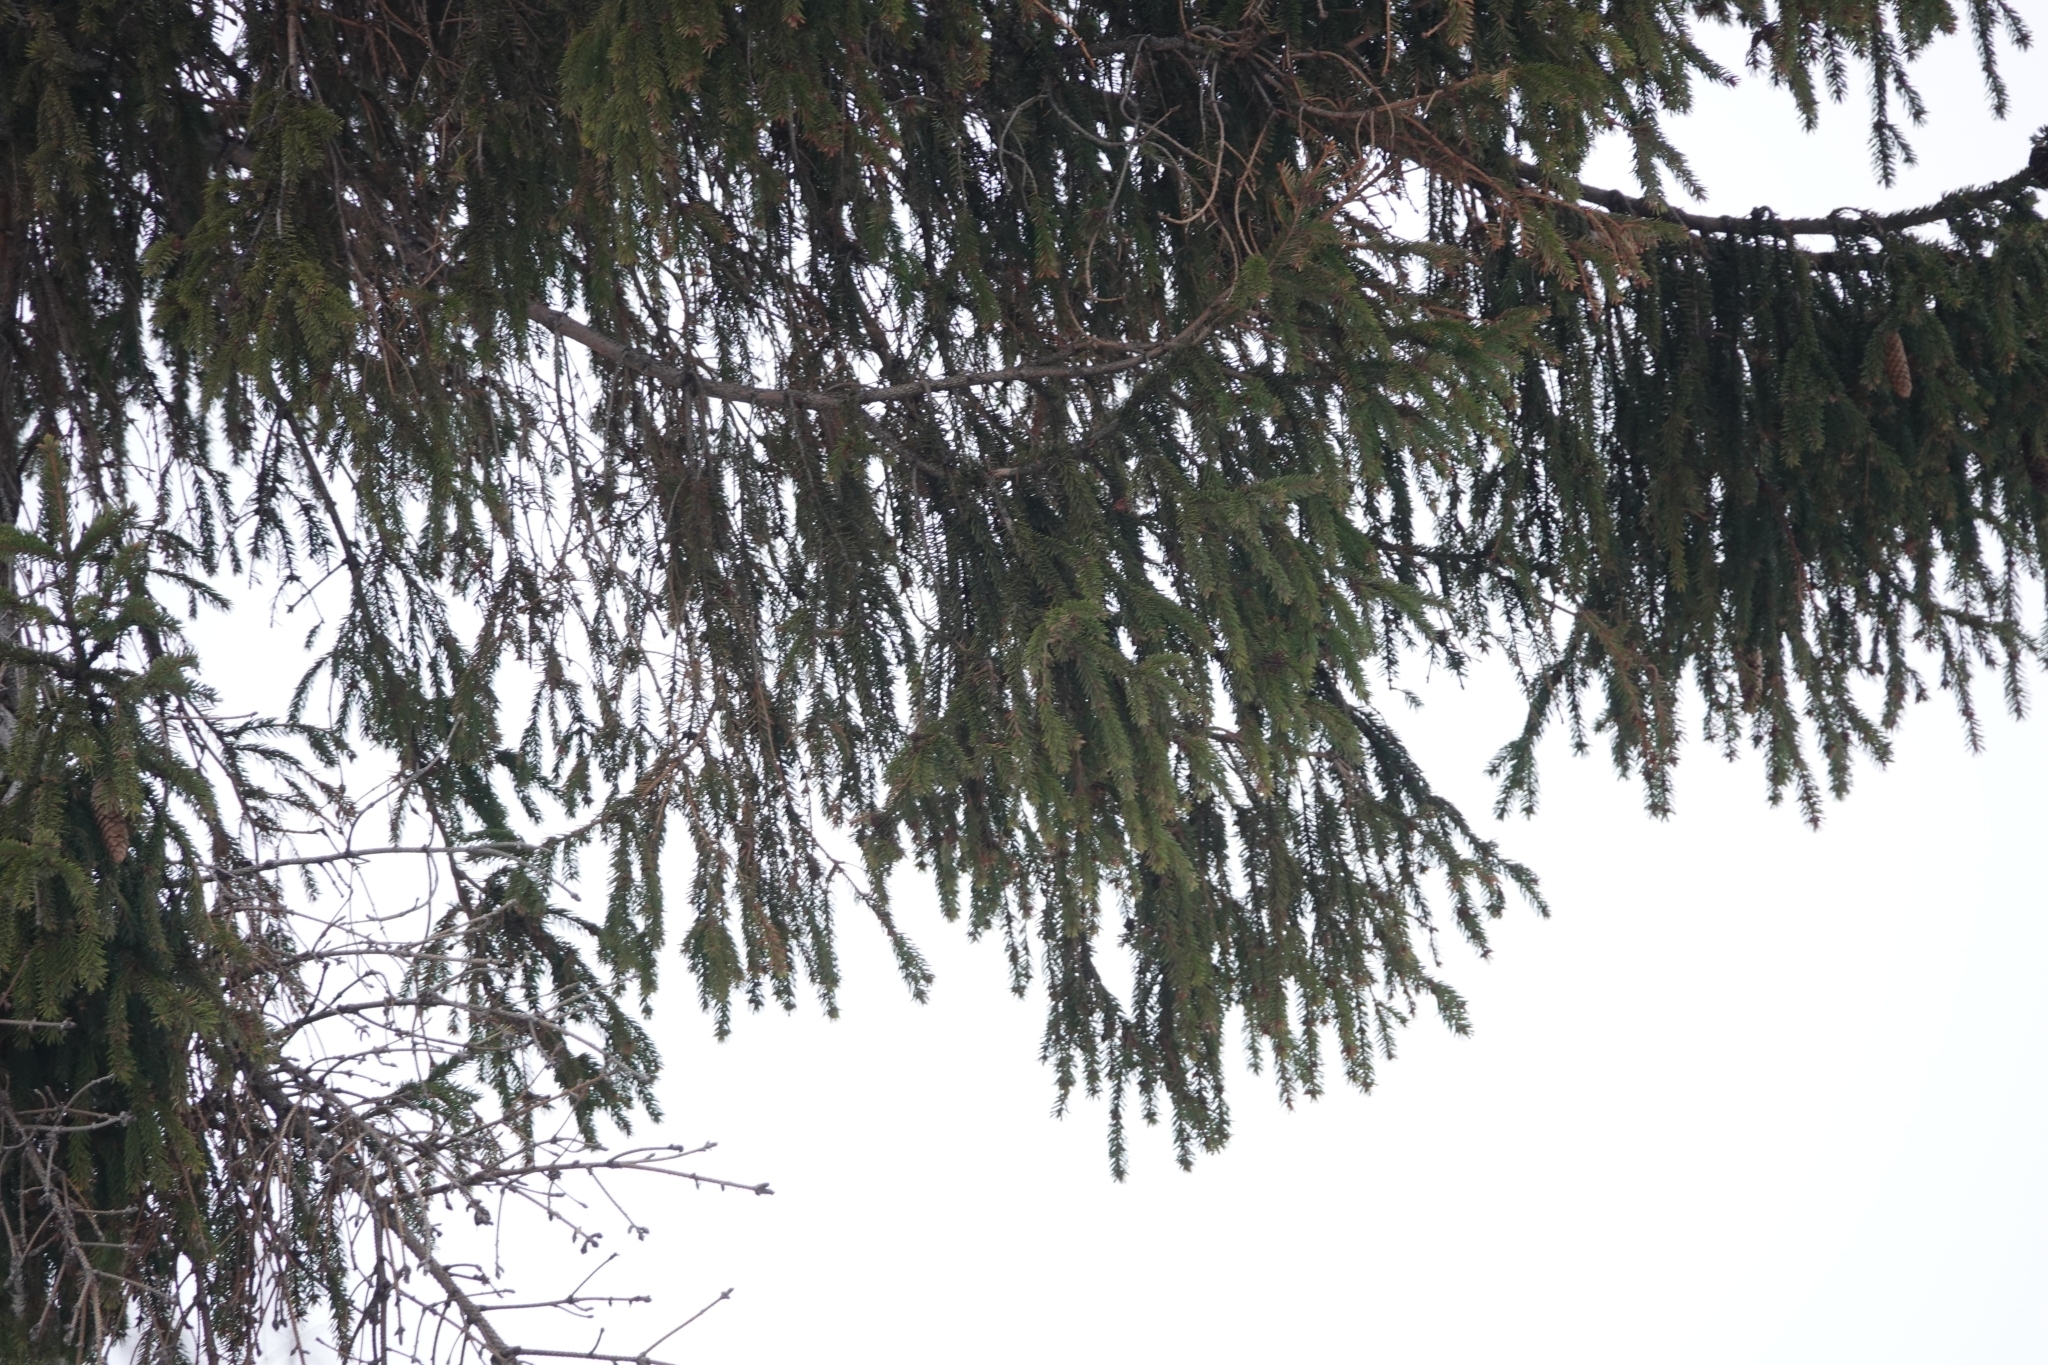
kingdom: Plantae
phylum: Tracheophyta
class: Pinopsida
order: Pinales
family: Pinaceae
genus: Picea
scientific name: Picea abies
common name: Norway spruce
